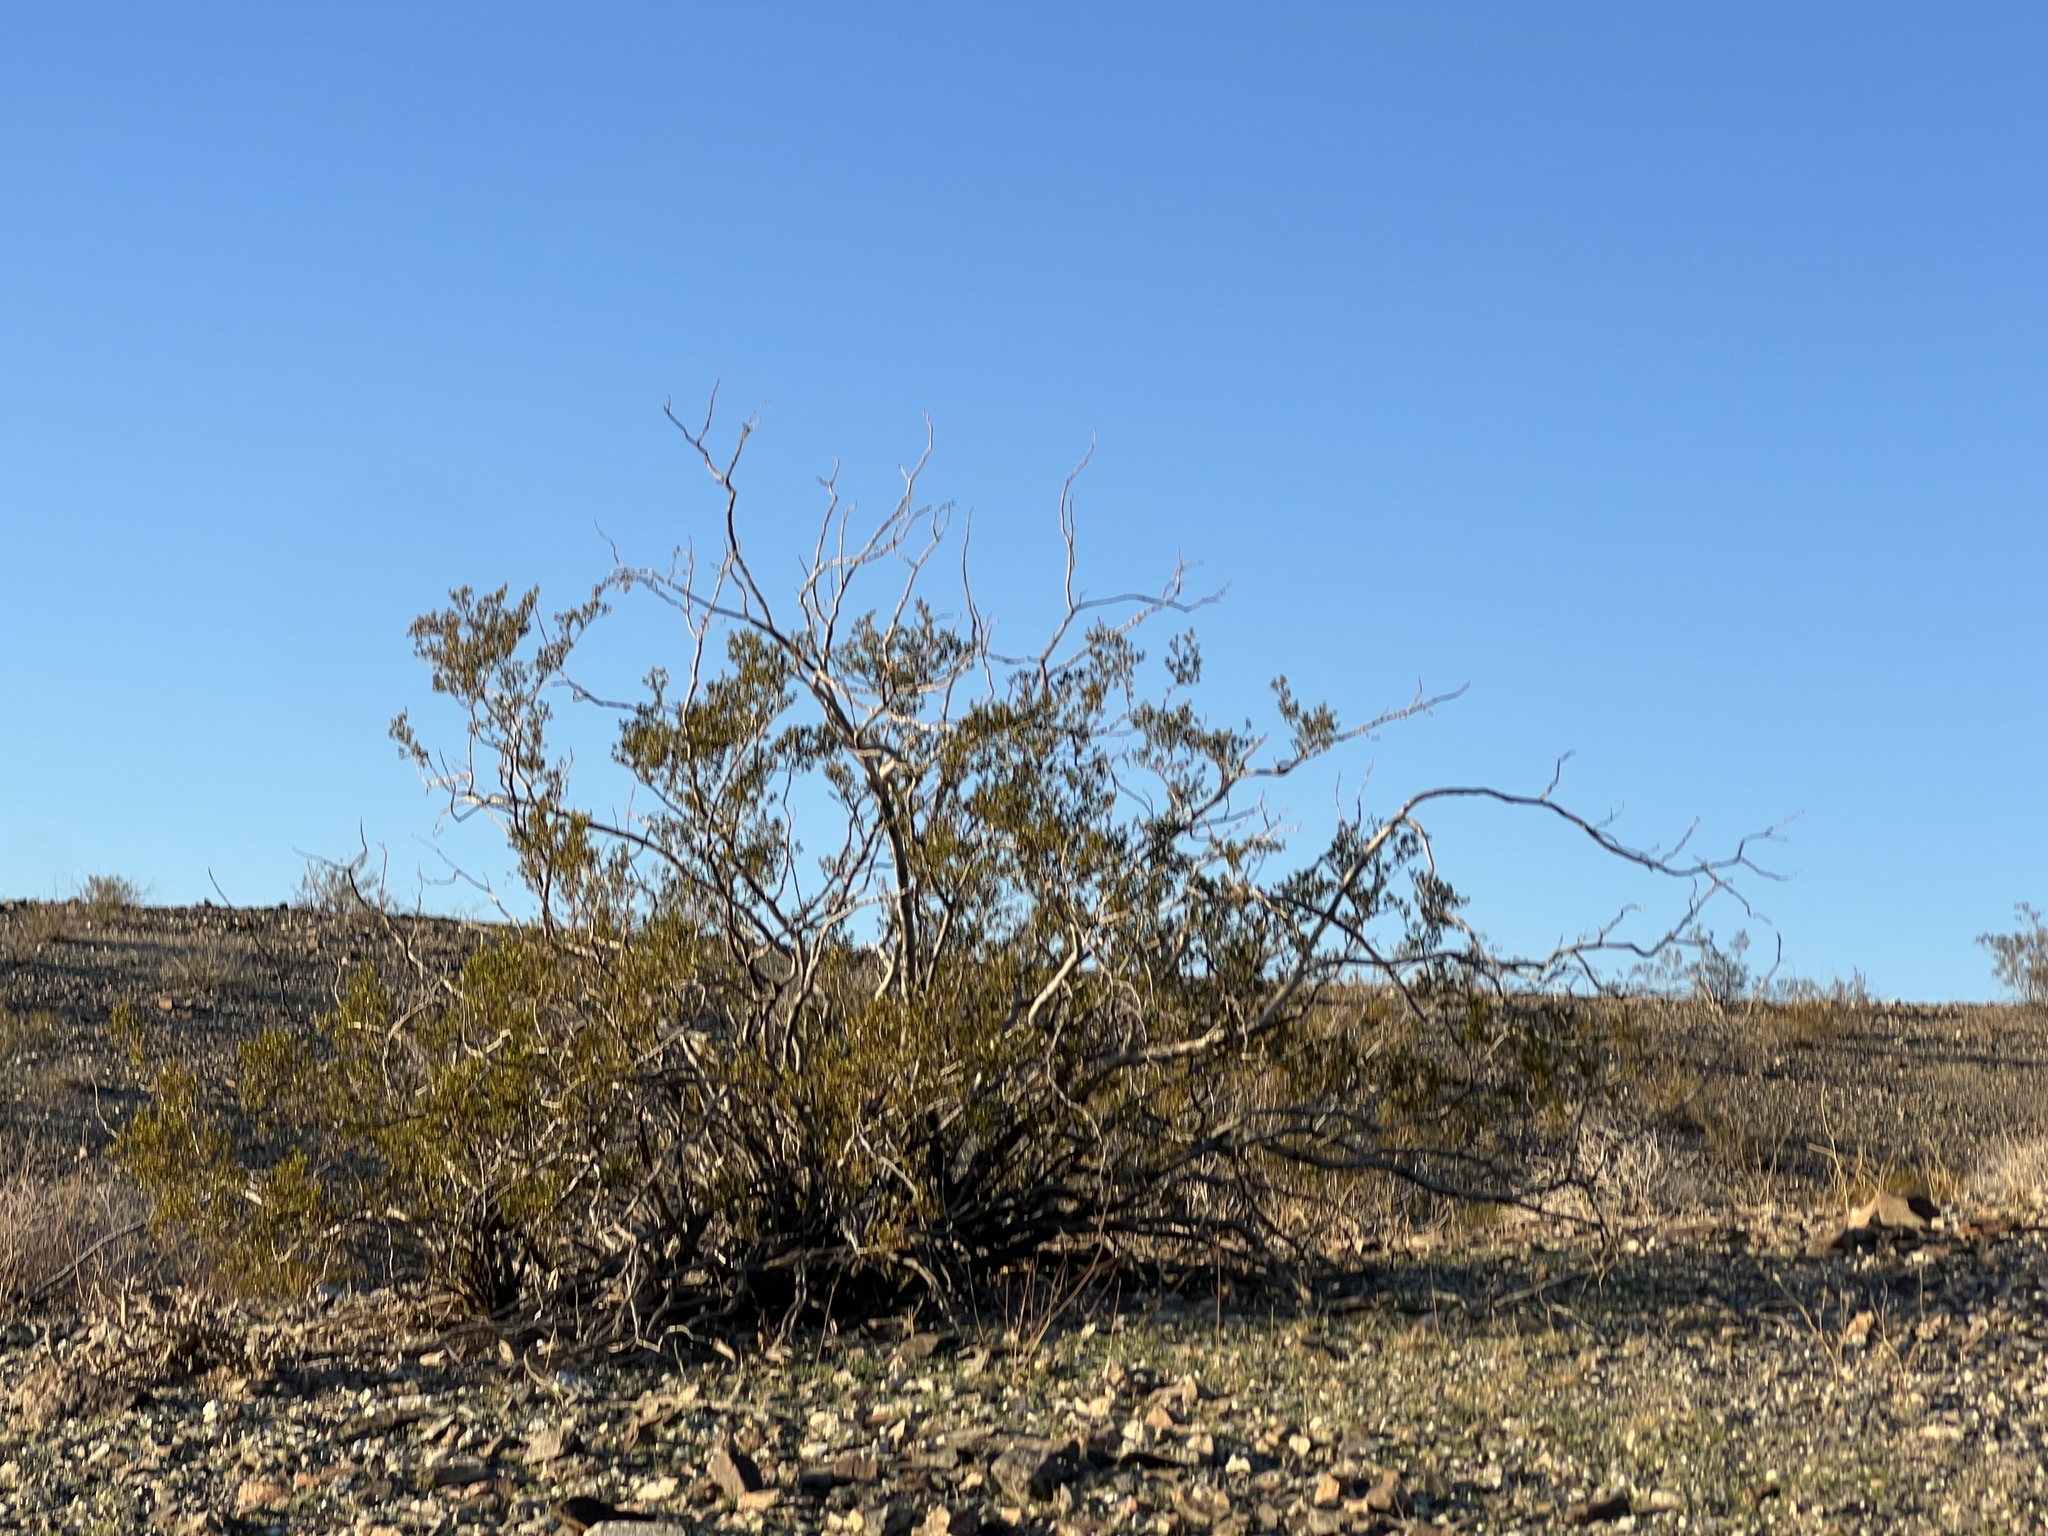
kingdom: Plantae
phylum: Tracheophyta
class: Magnoliopsida
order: Zygophyllales
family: Zygophyllaceae
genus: Larrea
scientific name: Larrea tridentata
